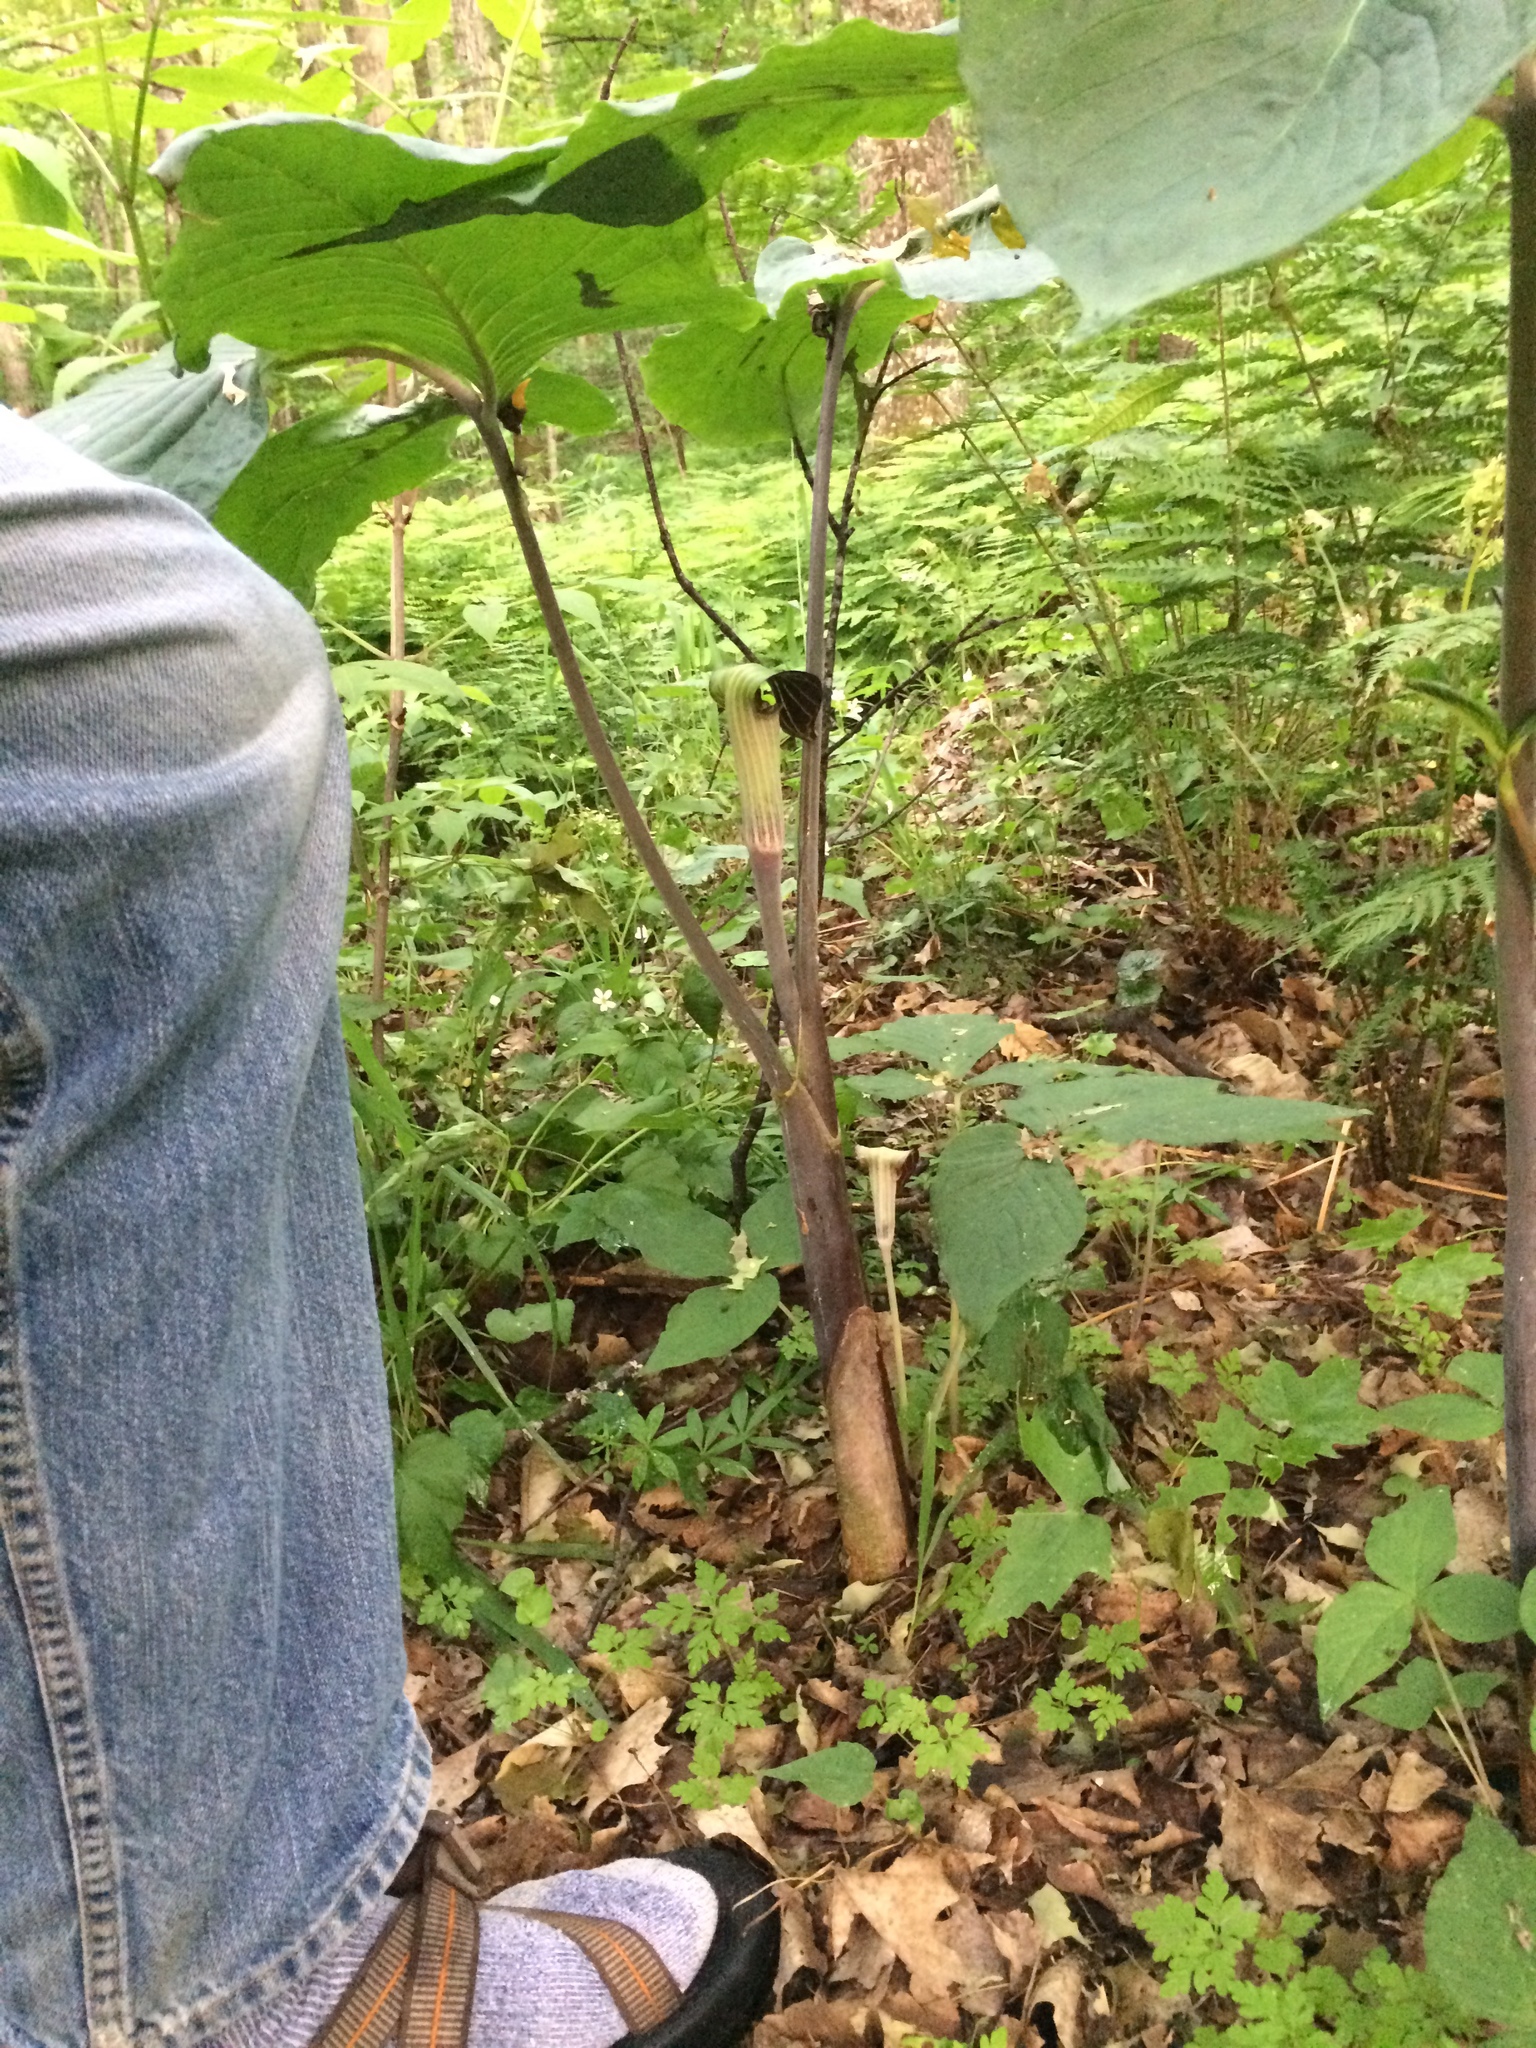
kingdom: Plantae
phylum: Tracheophyta
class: Liliopsida
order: Alismatales
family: Araceae
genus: Arisaema
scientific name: Arisaema triphyllum
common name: Jack-in-the-pulpit
